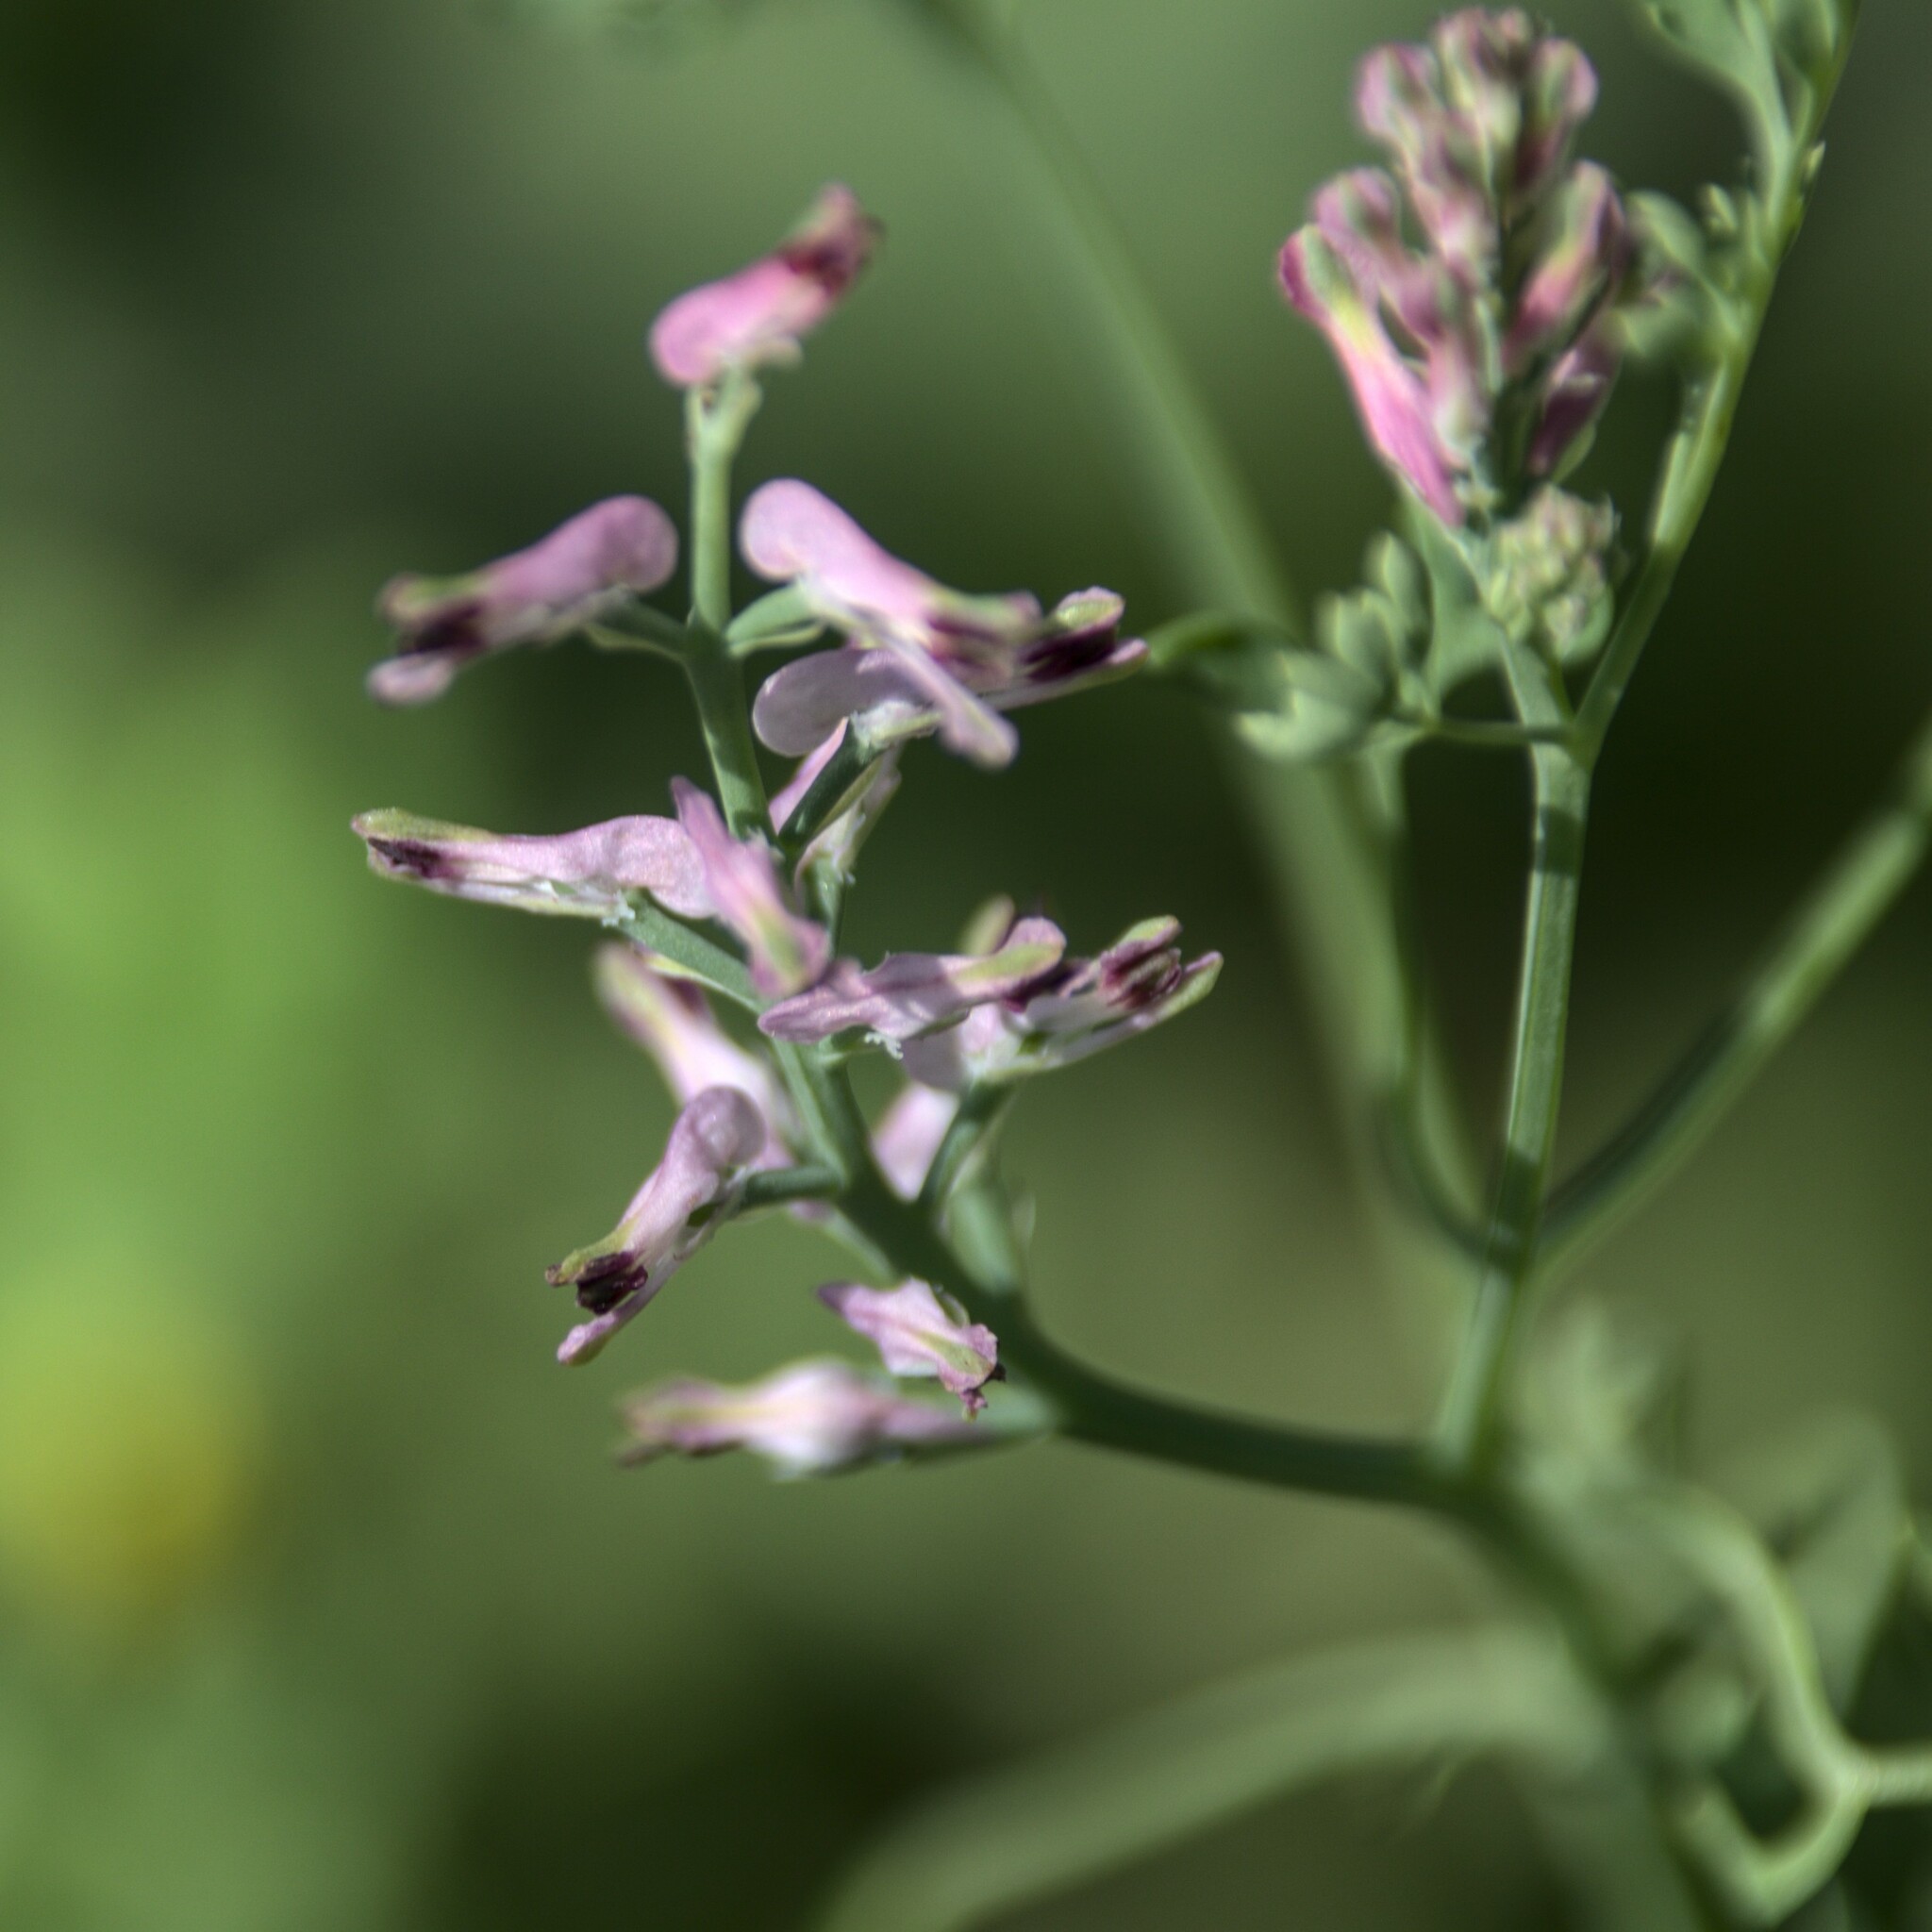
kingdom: Plantae
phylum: Tracheophyta
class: Magnoliopsida
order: Ranunculales
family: Papaveraceae
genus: Fumaria
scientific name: Fumaria officinalis
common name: Common fumitory
